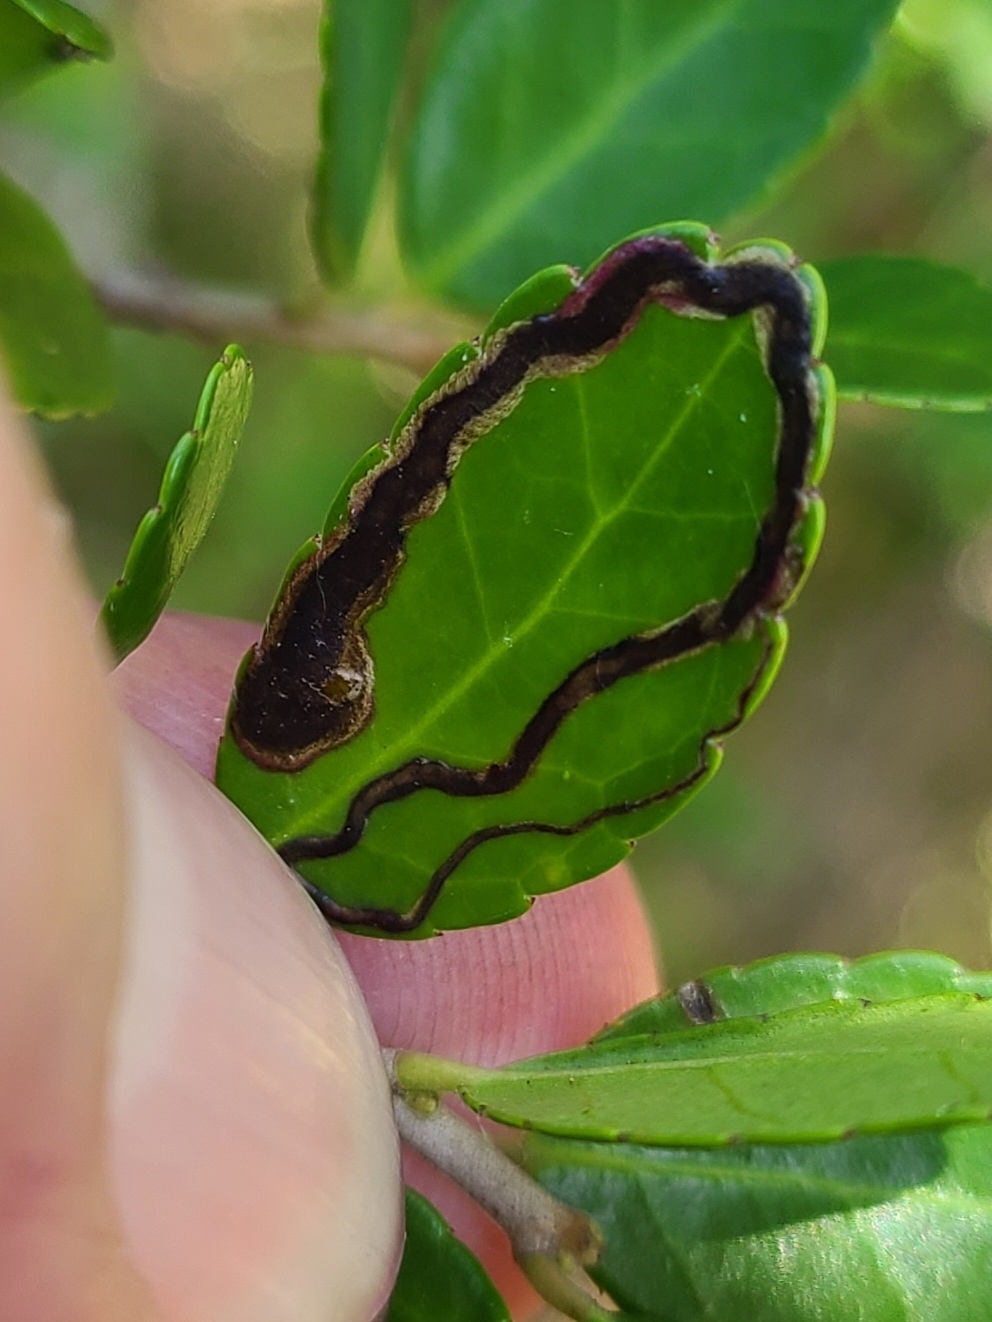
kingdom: Animalia
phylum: Arthropoda
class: Insecta
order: Diptera
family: Agromyzidae
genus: Phytomyza
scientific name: Phytomyza vomitoriae
